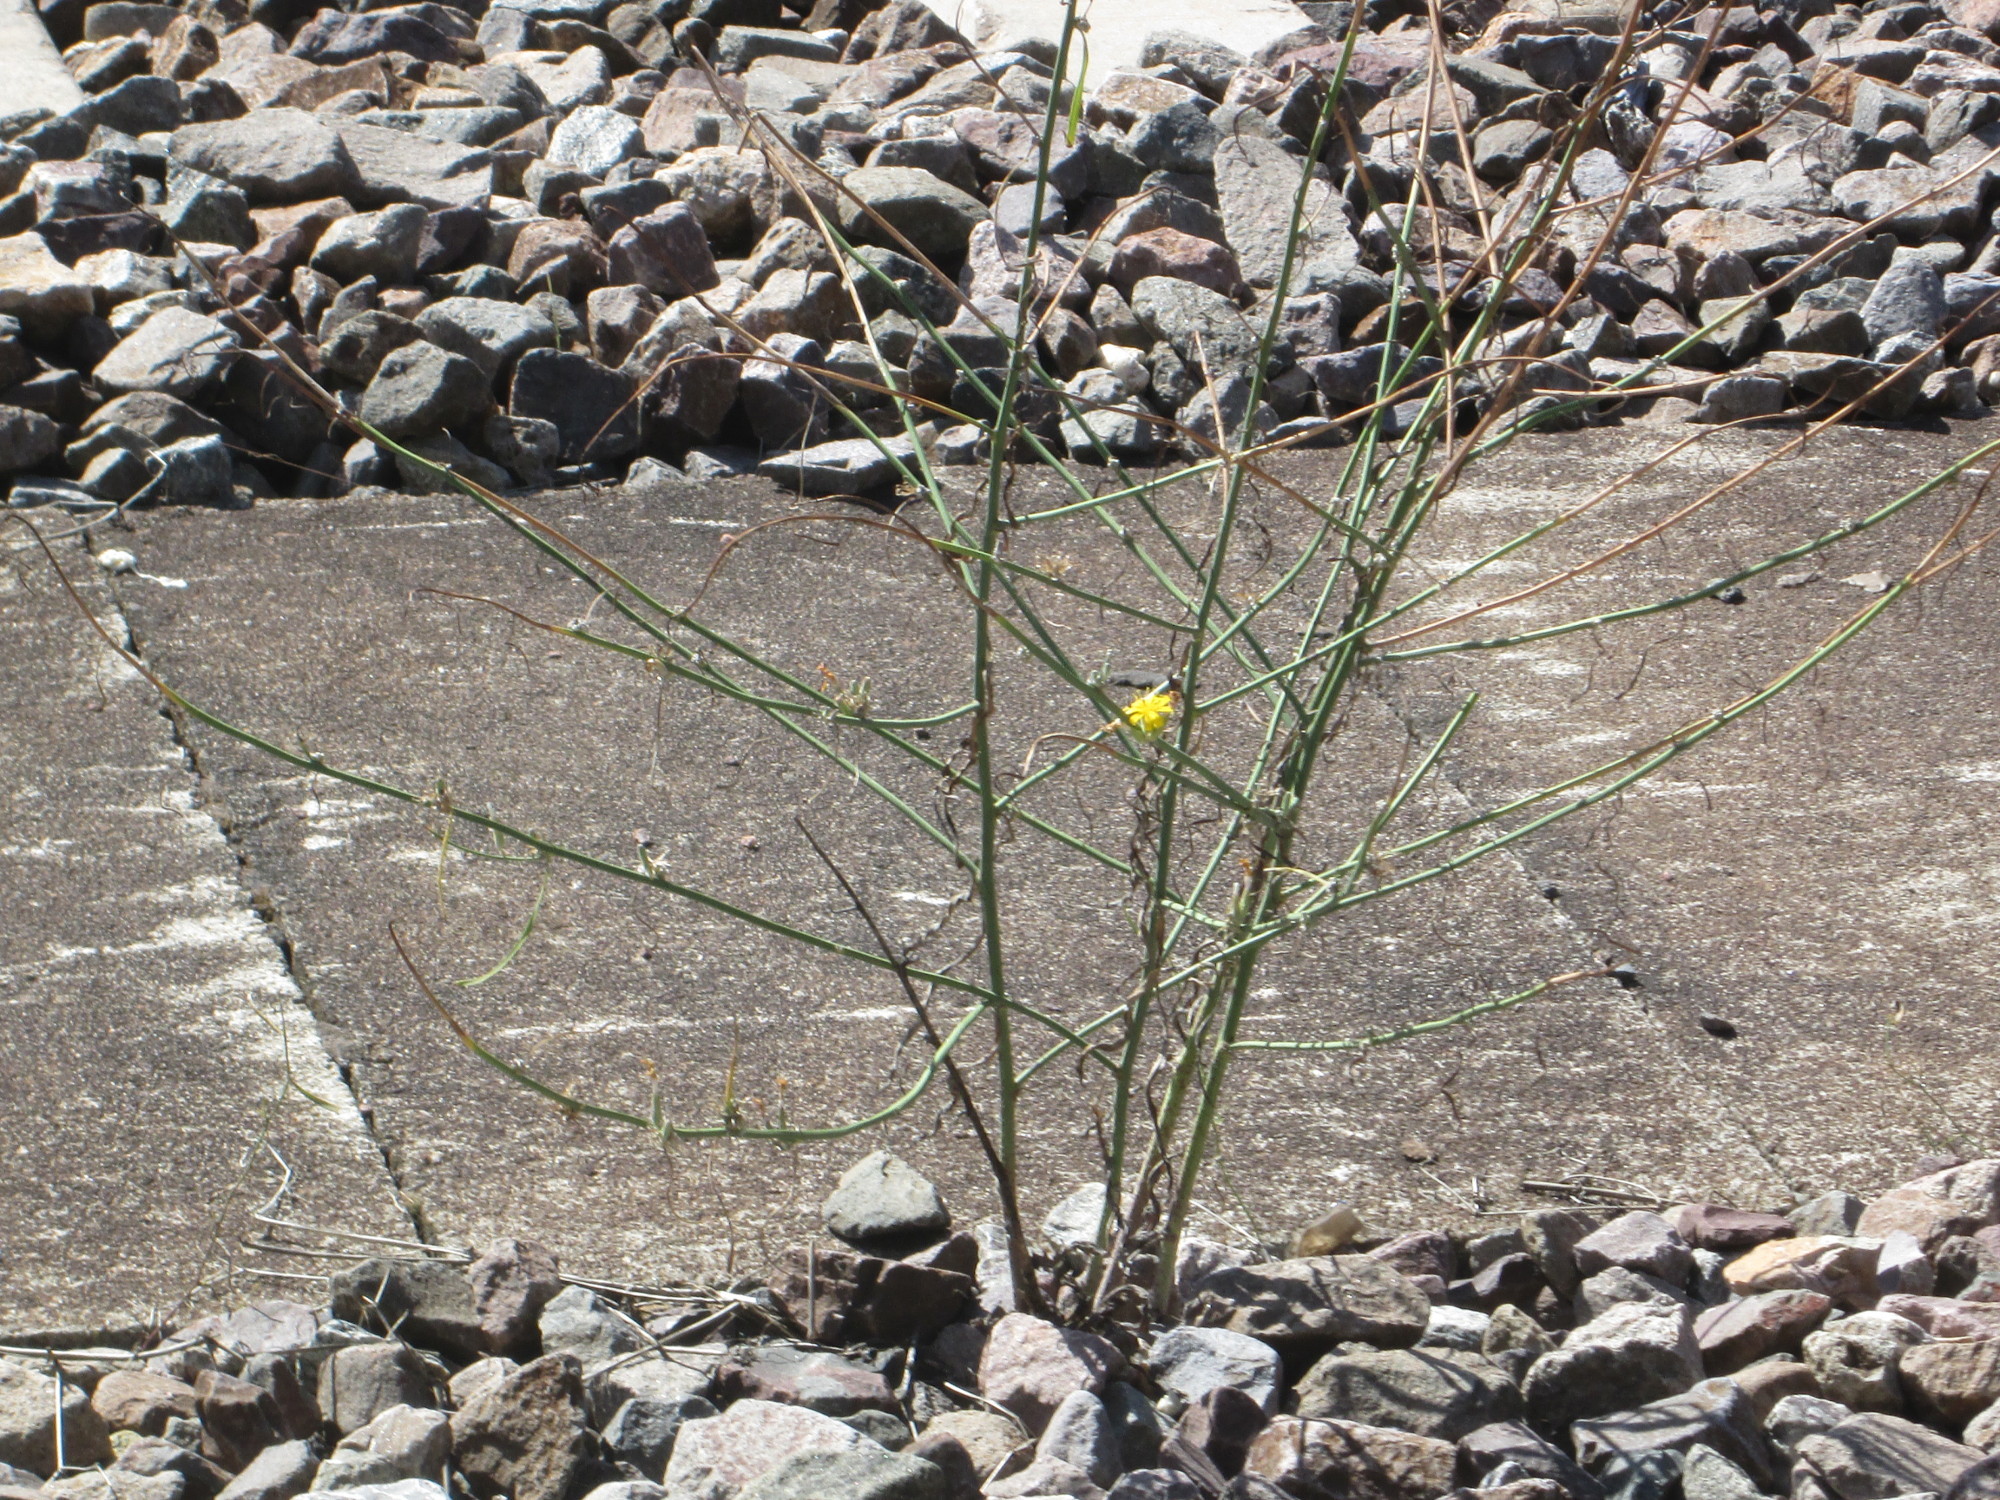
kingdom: Plantae
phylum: Tracheophyta
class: Magnoliopsida
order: Asterales
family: Asteraceae
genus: Chondrilla
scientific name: Chondrilla juncea
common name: Skeleton weed
